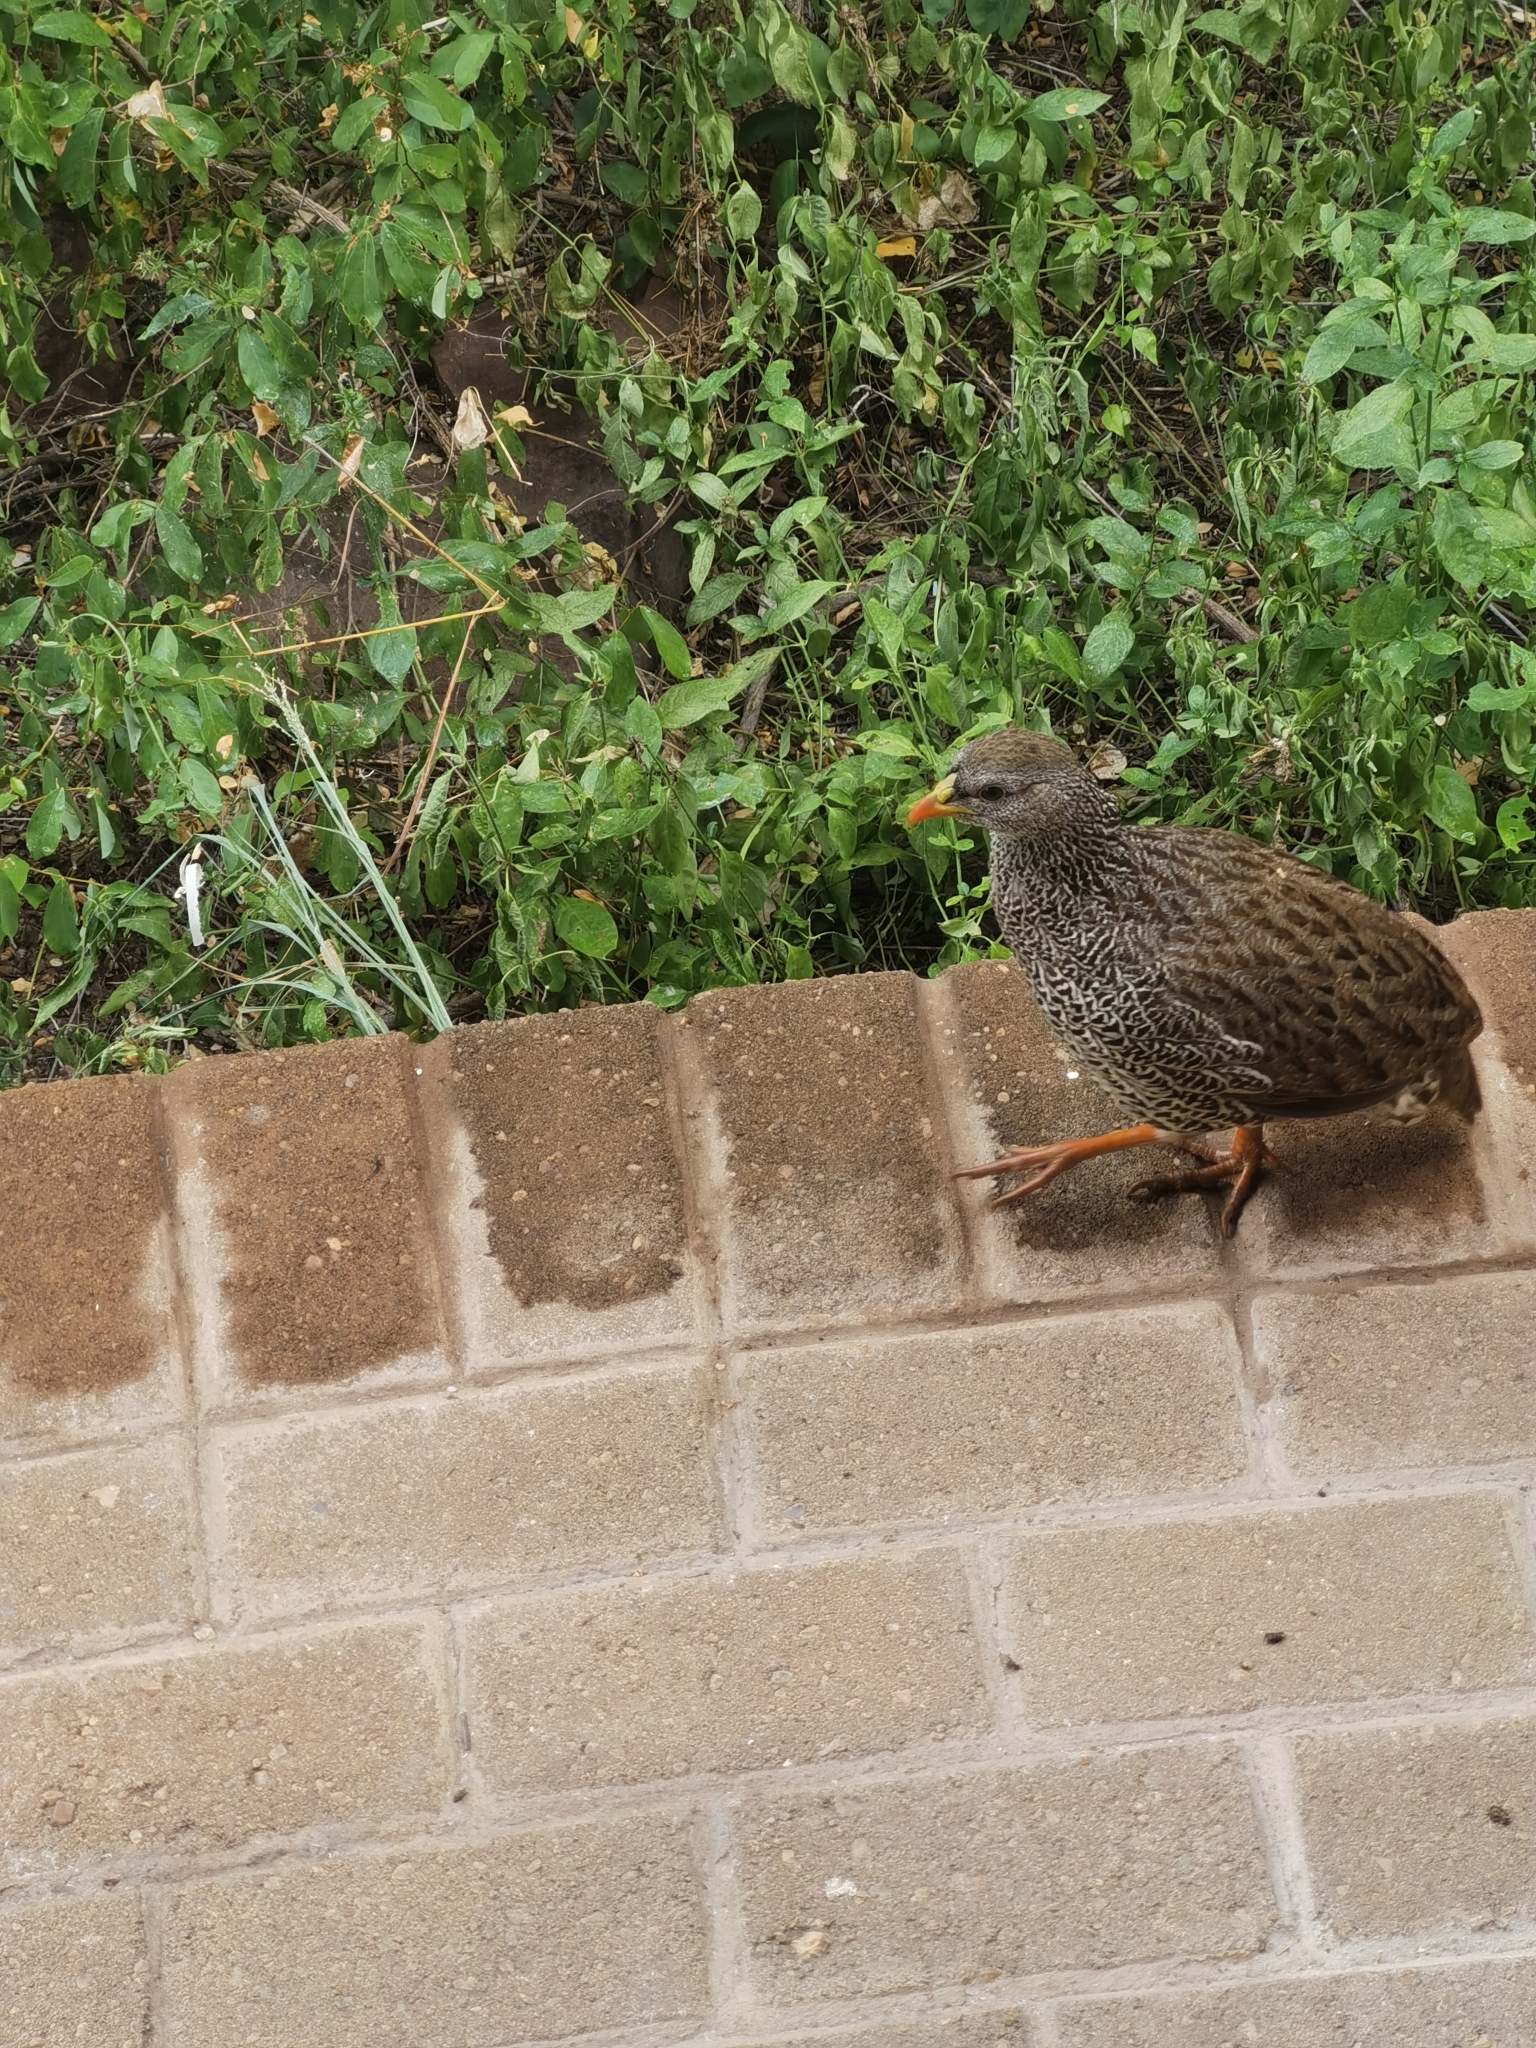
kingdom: Animalia
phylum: Chordata
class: Aves
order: Galliformes
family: Phasianidae
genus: Pternistis
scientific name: Pternistis natalensis
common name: Natal spurfowl
